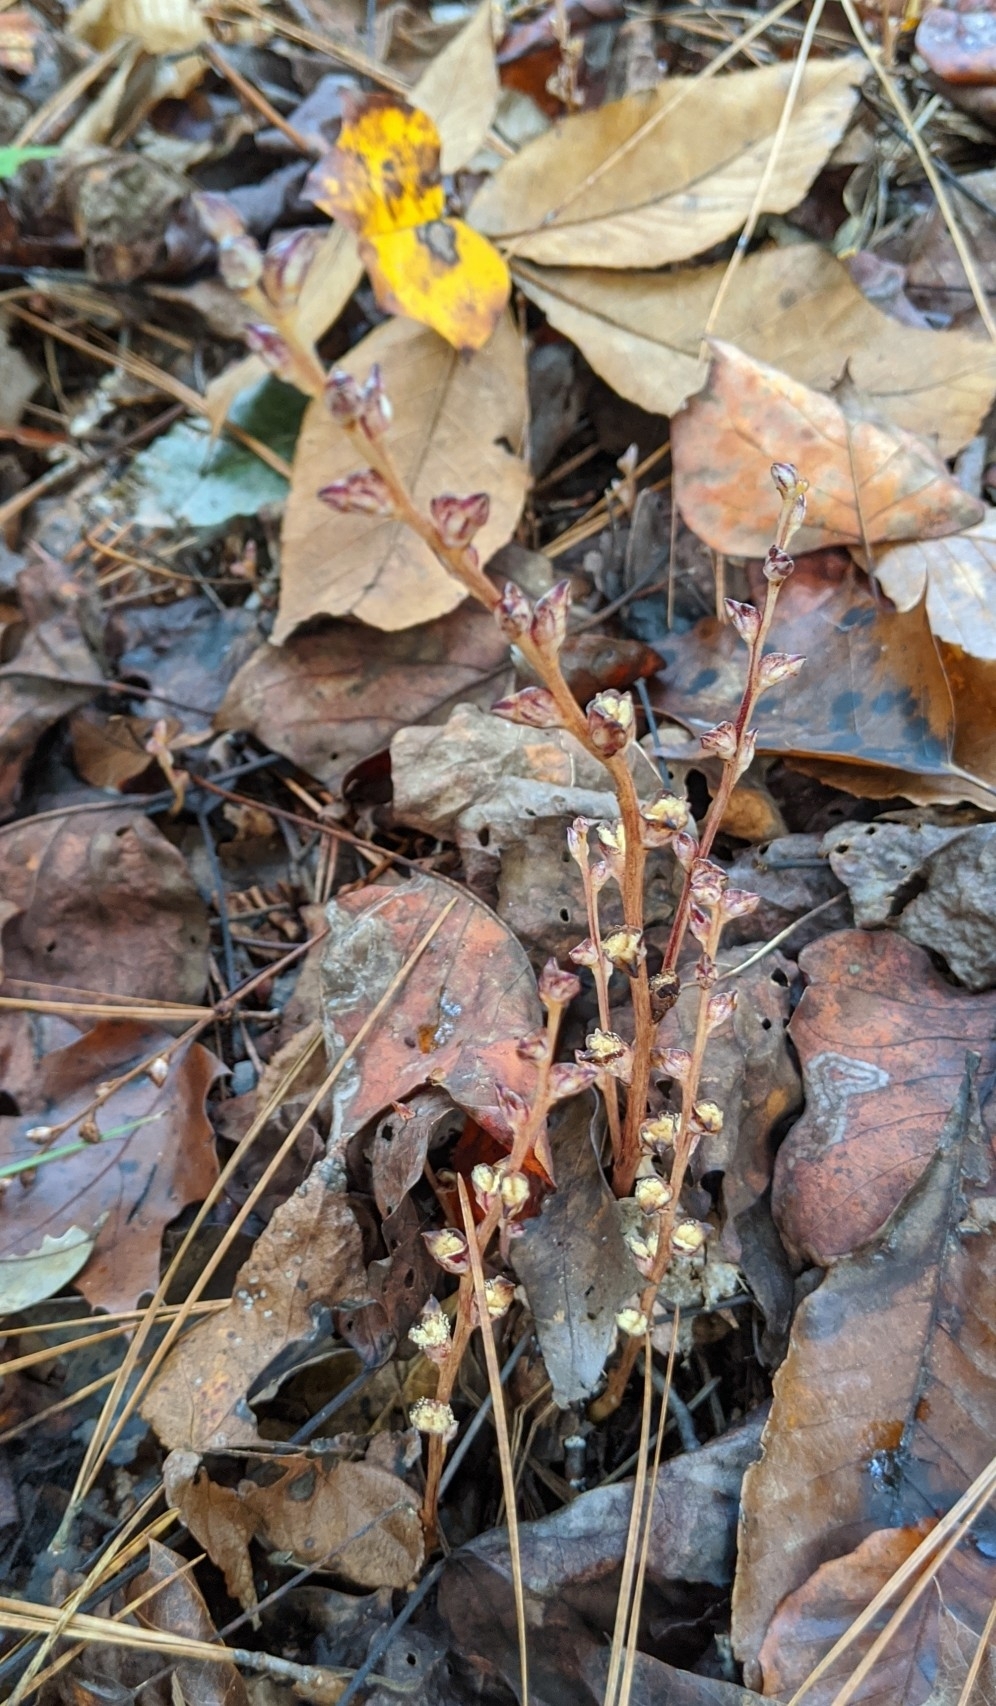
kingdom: Plantae
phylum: Tracheophyta
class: Magnoliopsida
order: Lamiales
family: Orobanchaceae
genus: Epifagus
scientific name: Epifagus virginiana
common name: Beechdrops
